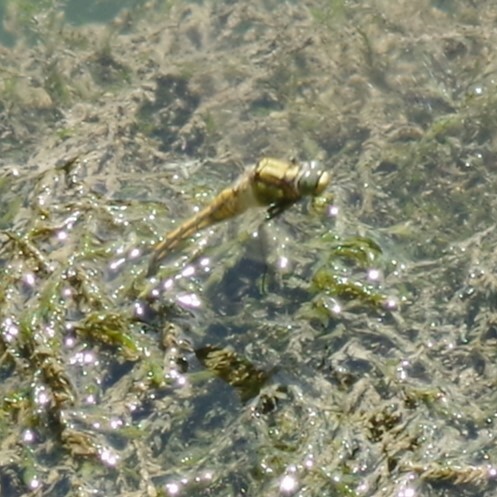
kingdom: Animalia
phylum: Arthropoda
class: Insecta
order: Odonata
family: Libellulidae
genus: Orthetrum
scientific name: Orthetrum cancellatum
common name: Black-tailed skimmer
